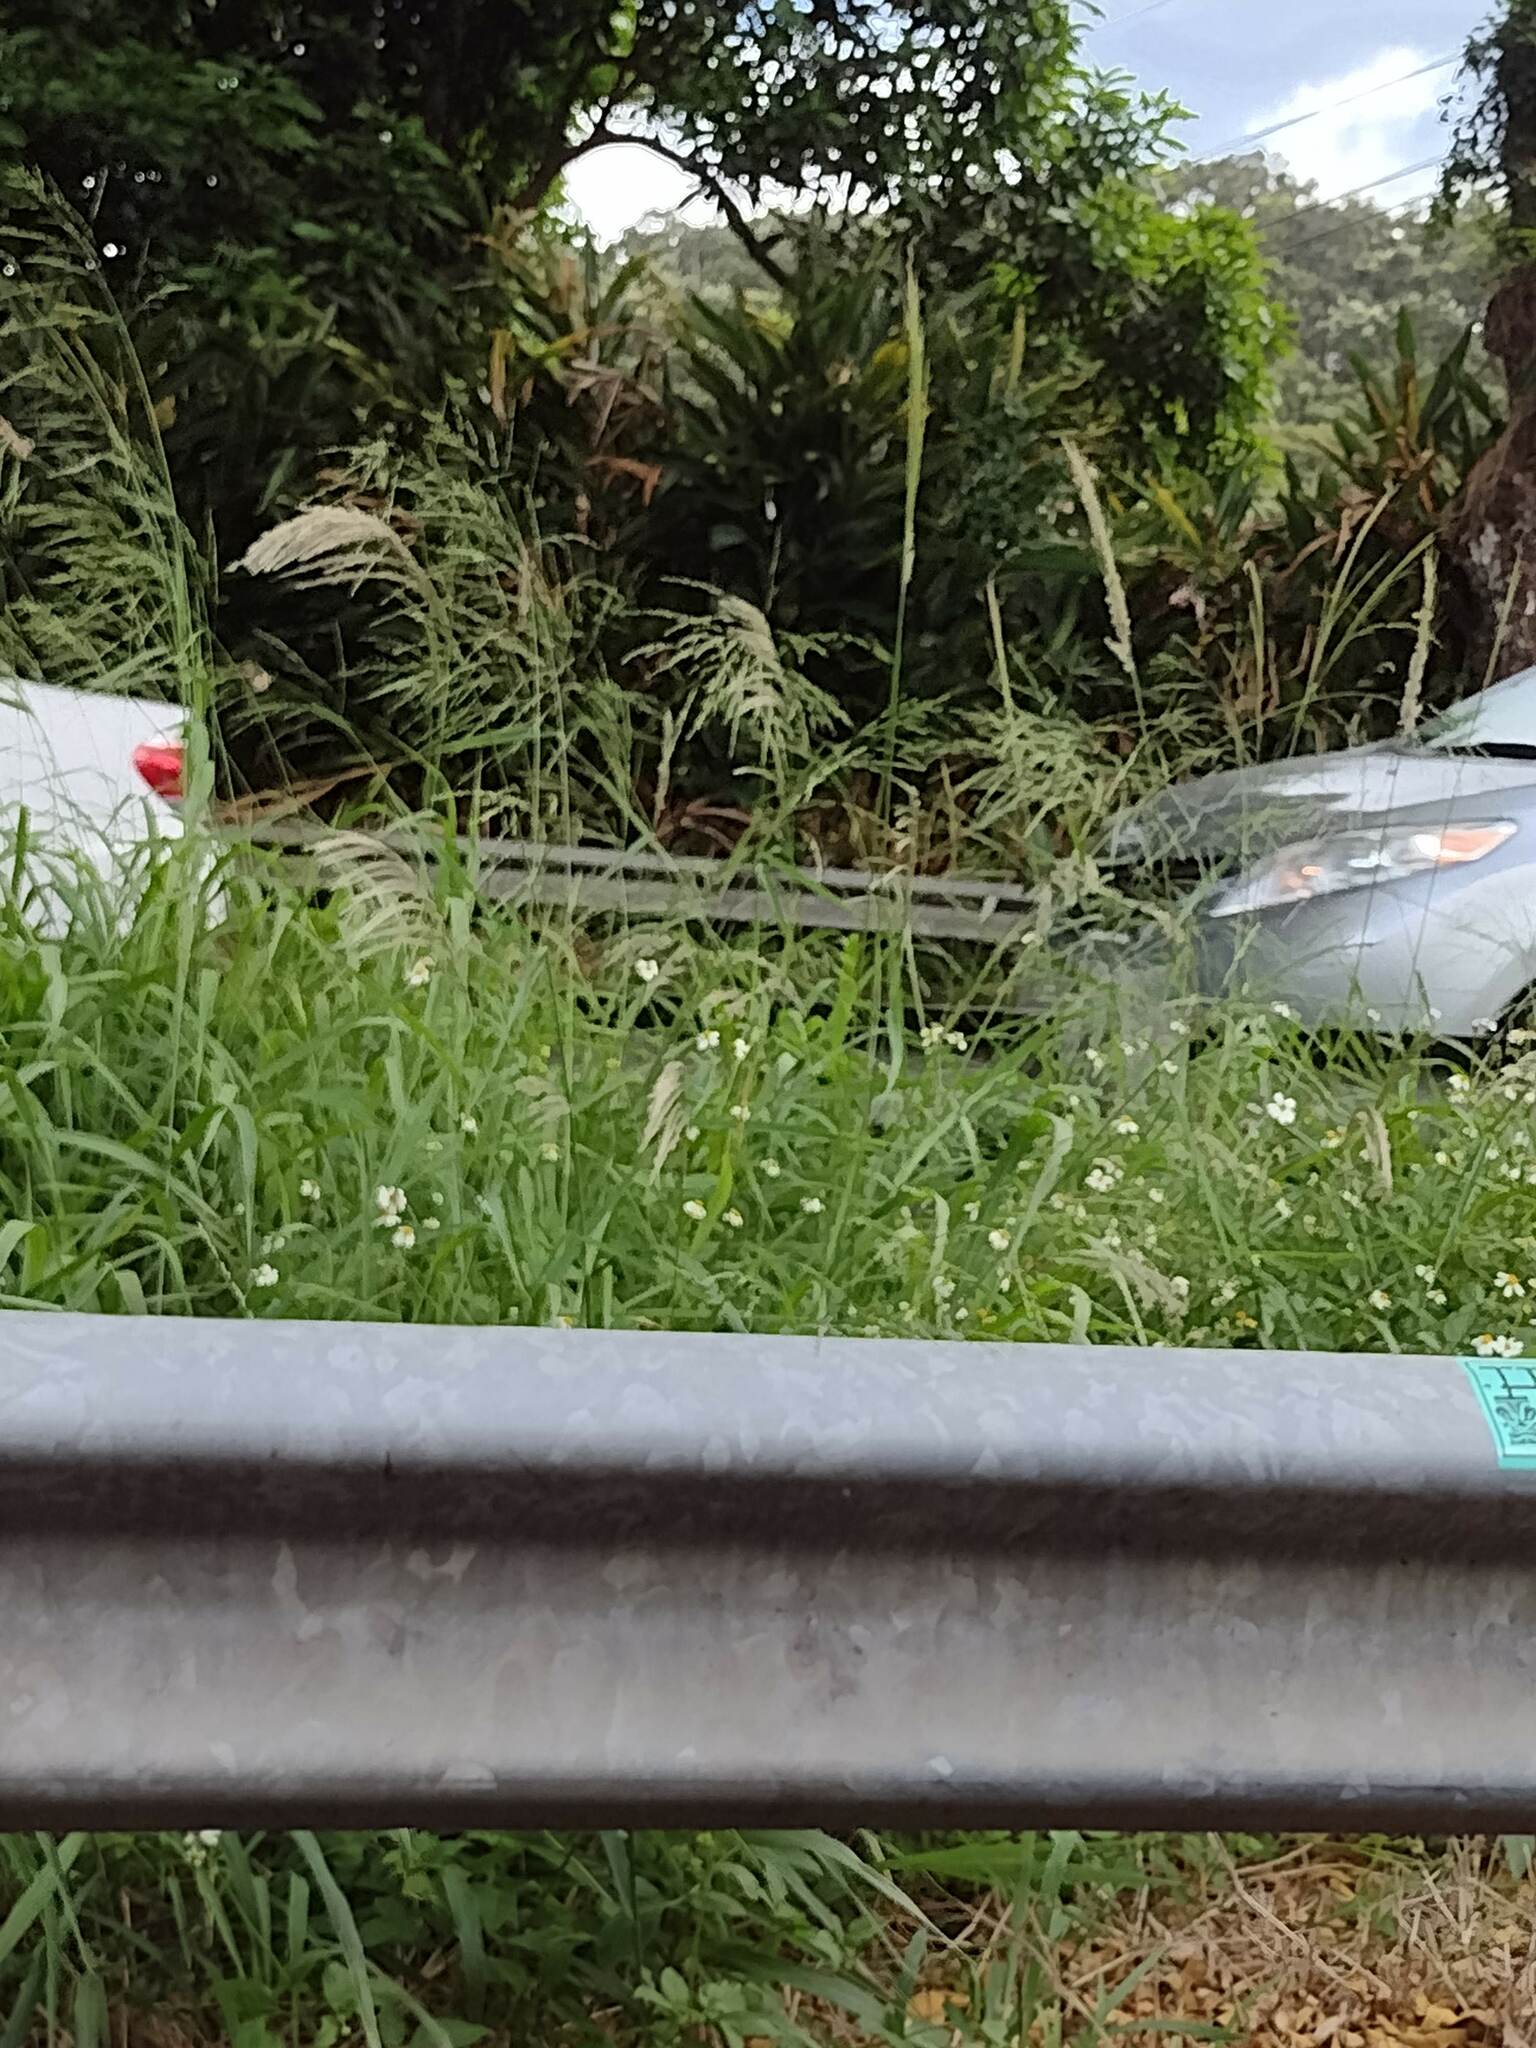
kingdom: Plantae
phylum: Tracheophyta
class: Liliopsida
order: Poales
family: Poaceae
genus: Megathyrsus
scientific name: Megathyrsus maximus
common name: Guineagrass
